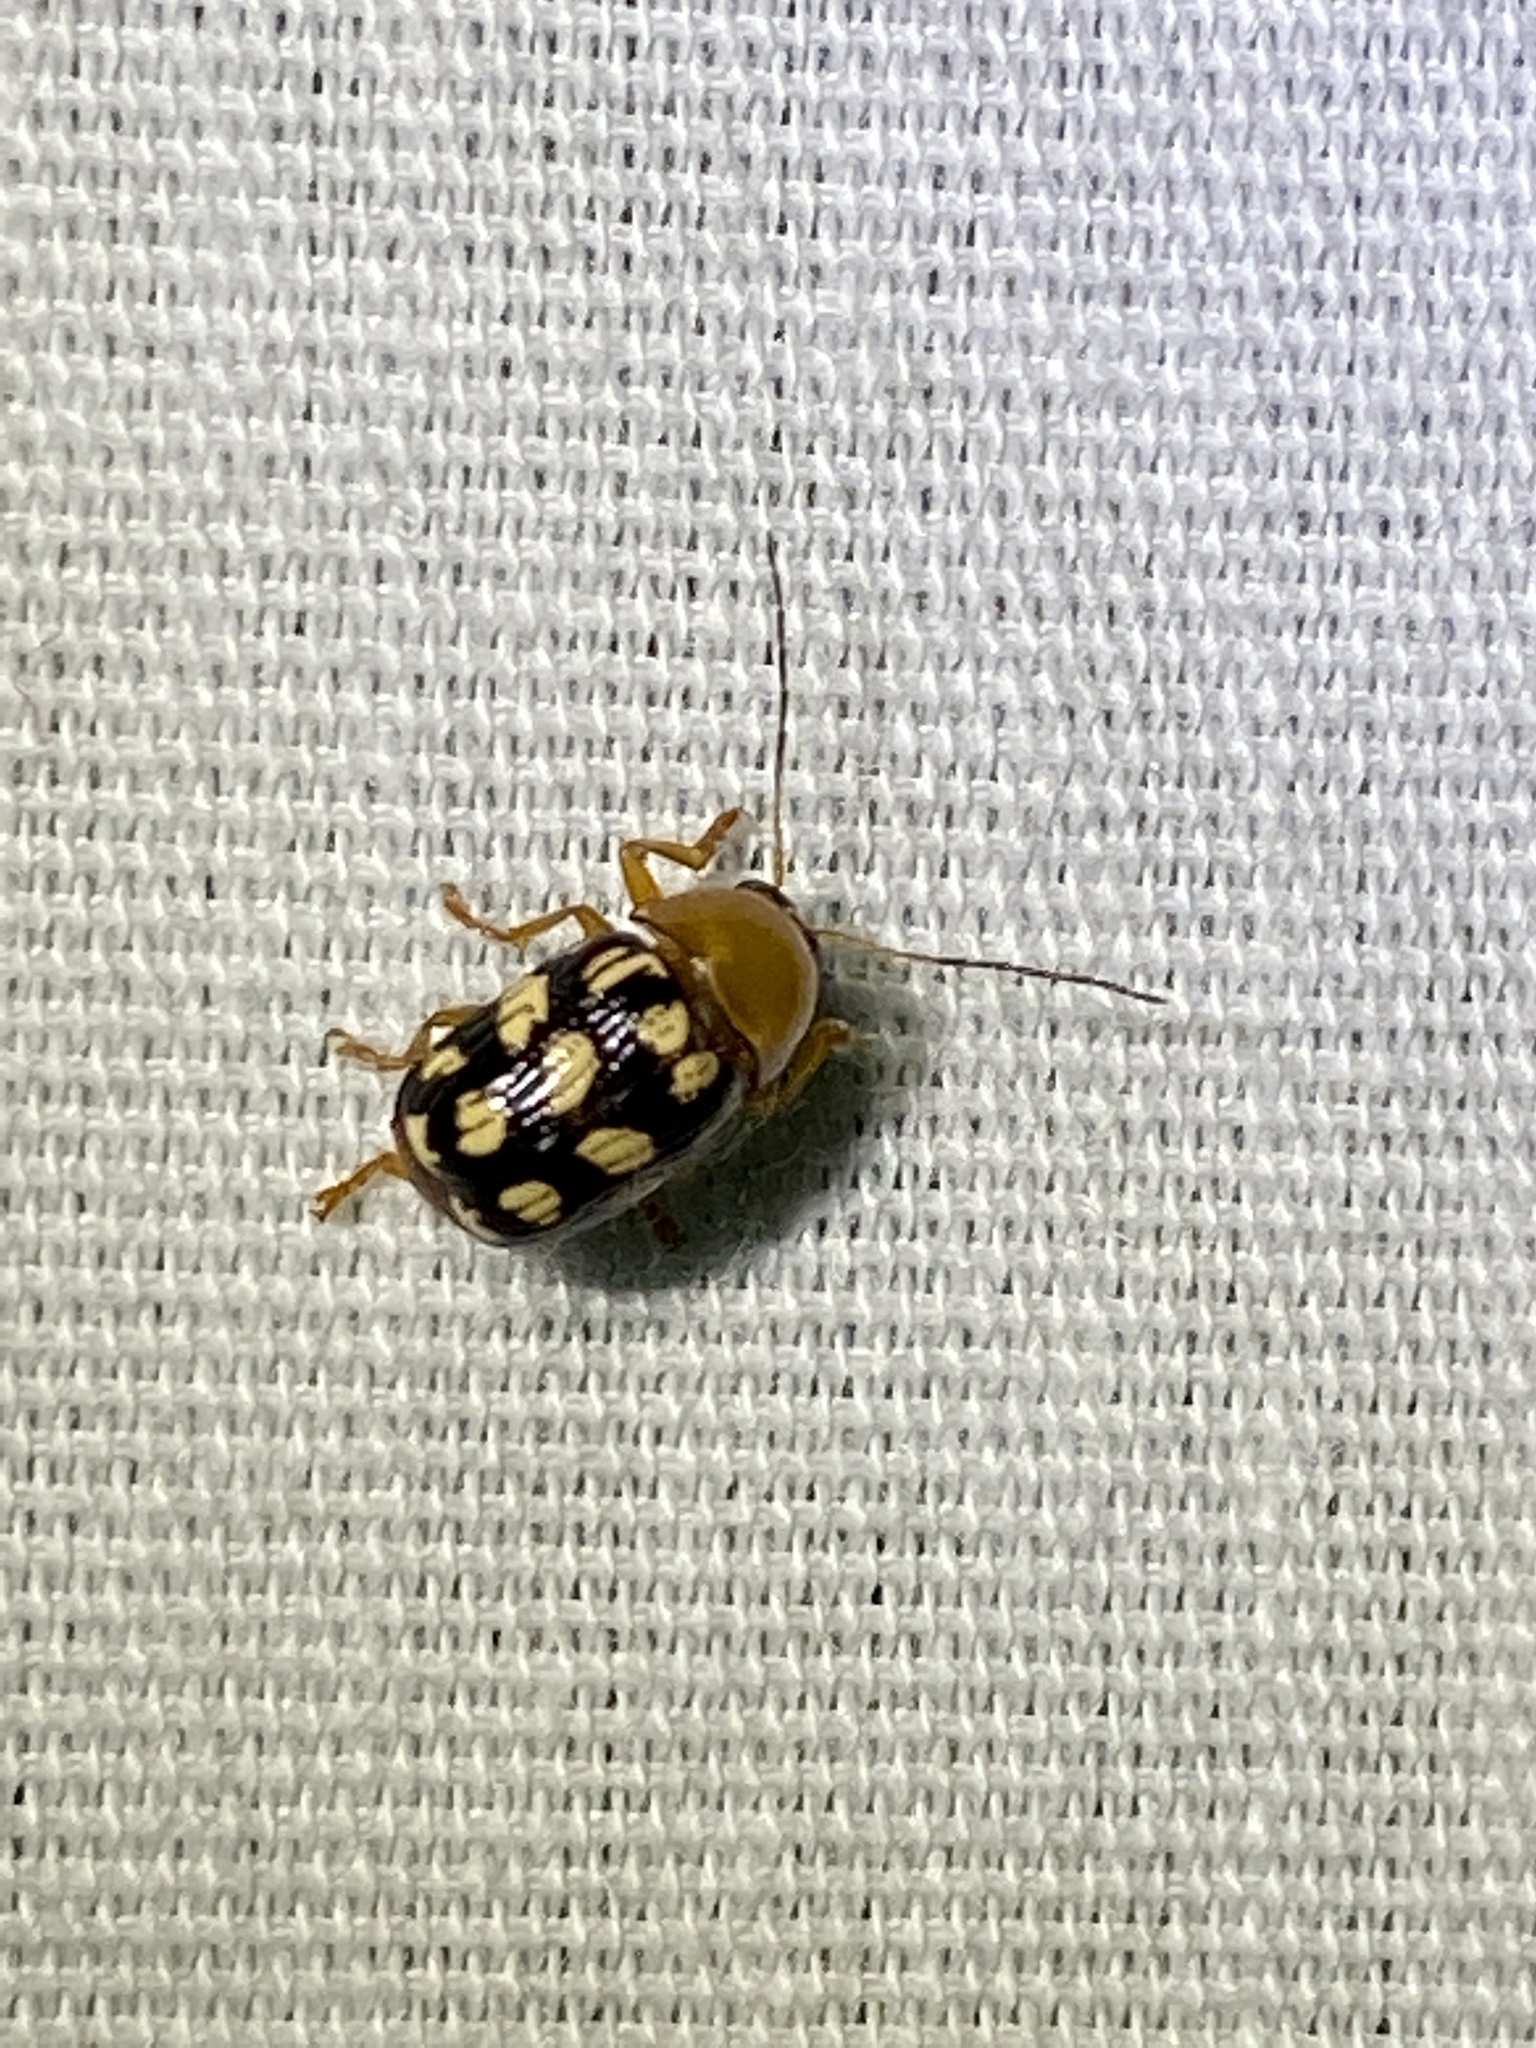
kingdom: Animalia
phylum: Arthropoda
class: Insecta
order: Coleoptera
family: Chrysomelidae
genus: Cryptocephalus
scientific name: Cryptocephalus guttulatus
